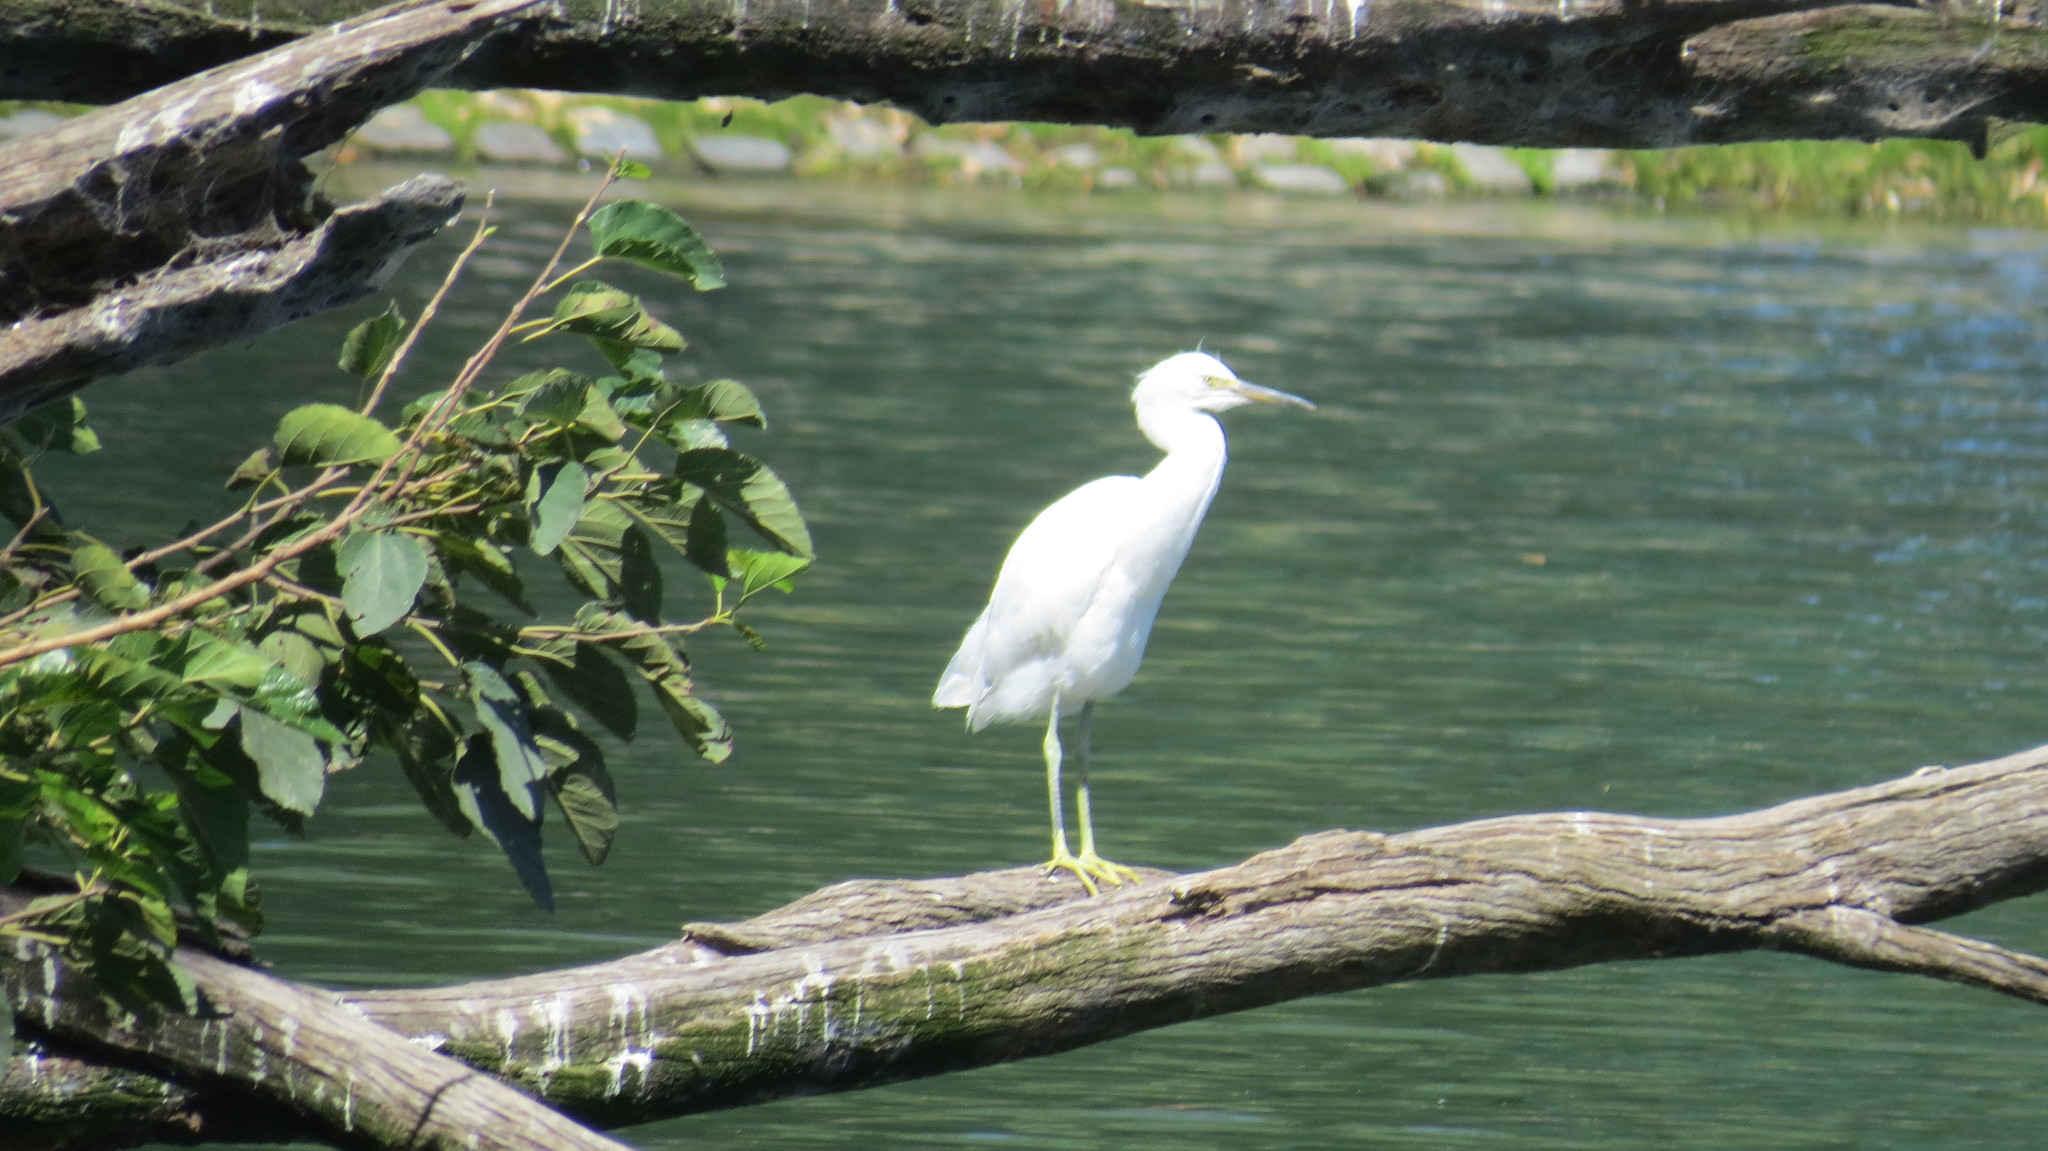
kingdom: Animalia
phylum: Chordata
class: Aves
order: Pelecaniformes
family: Ardeidae
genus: Egretta
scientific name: Egretta thula
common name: Snowy egret
